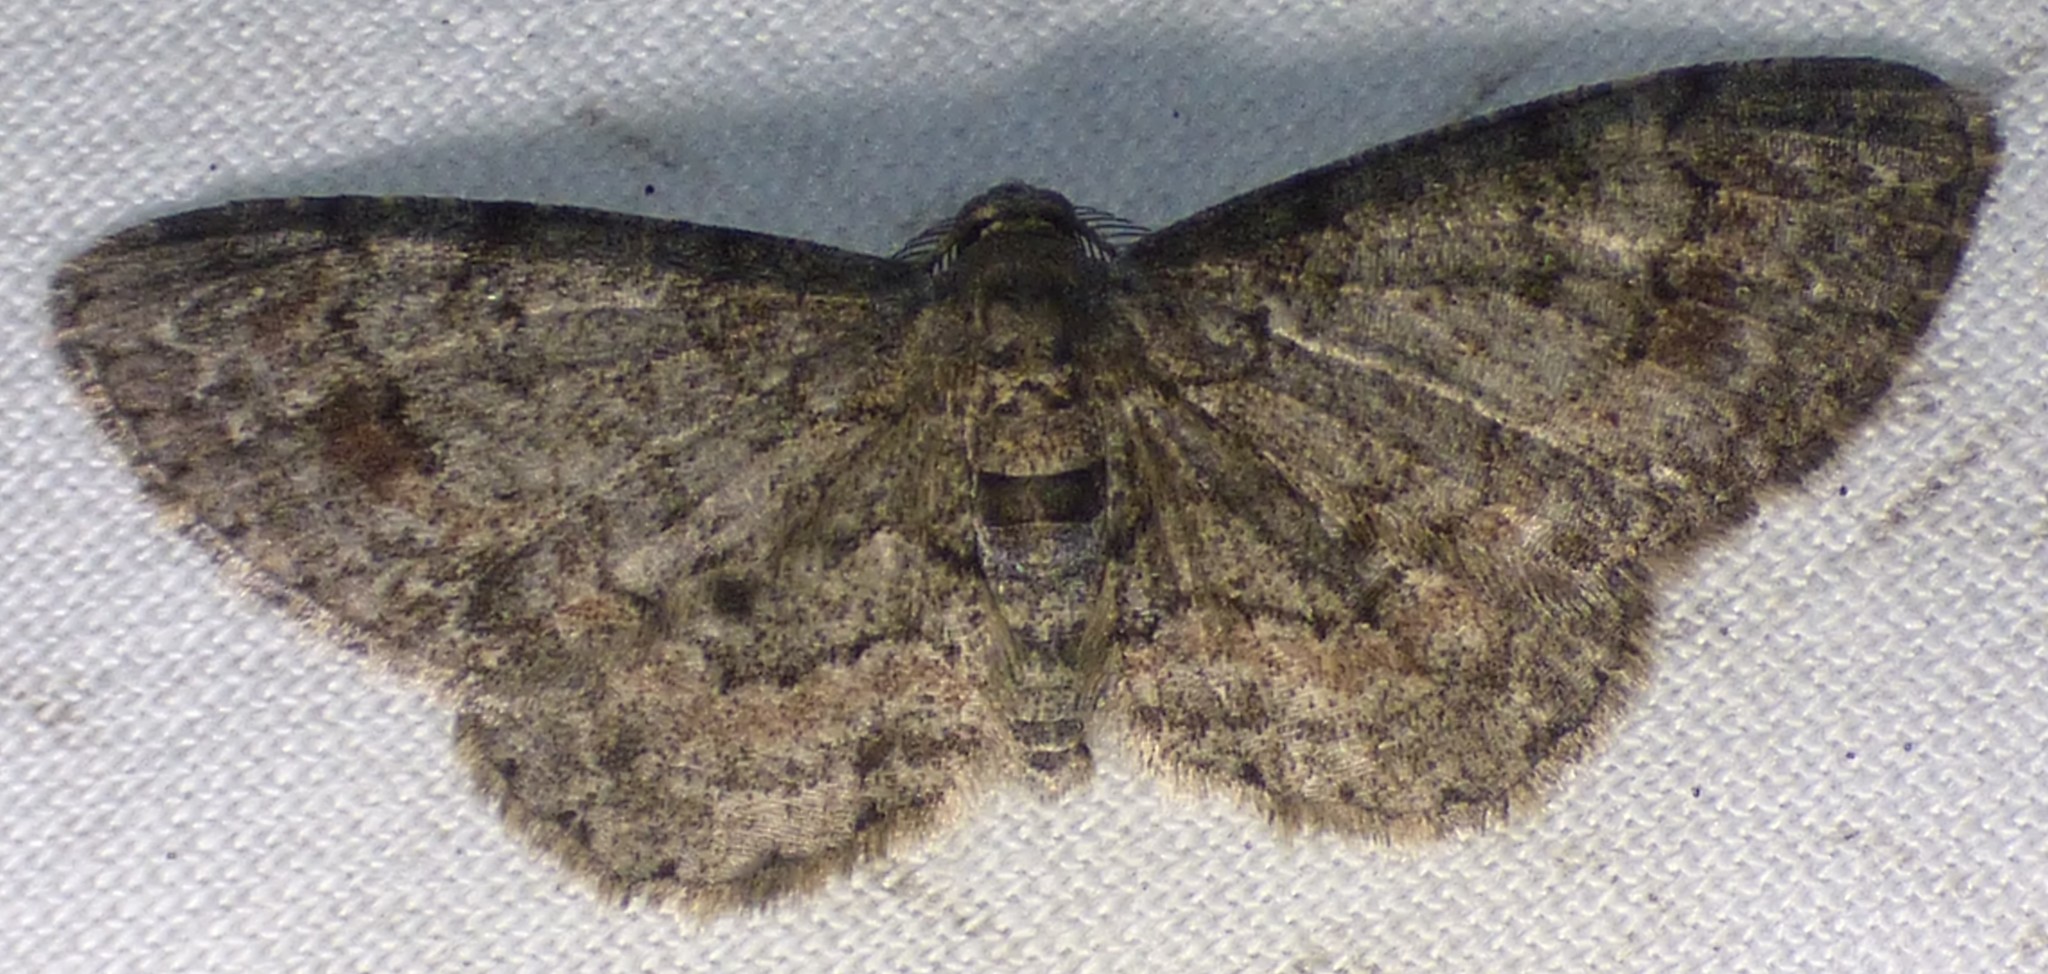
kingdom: Animalia
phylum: Arthropoda
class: Insecta
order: Lepidoptera
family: Geometridae
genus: Glenoides
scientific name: Glenoides texanaria
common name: Texas gray
